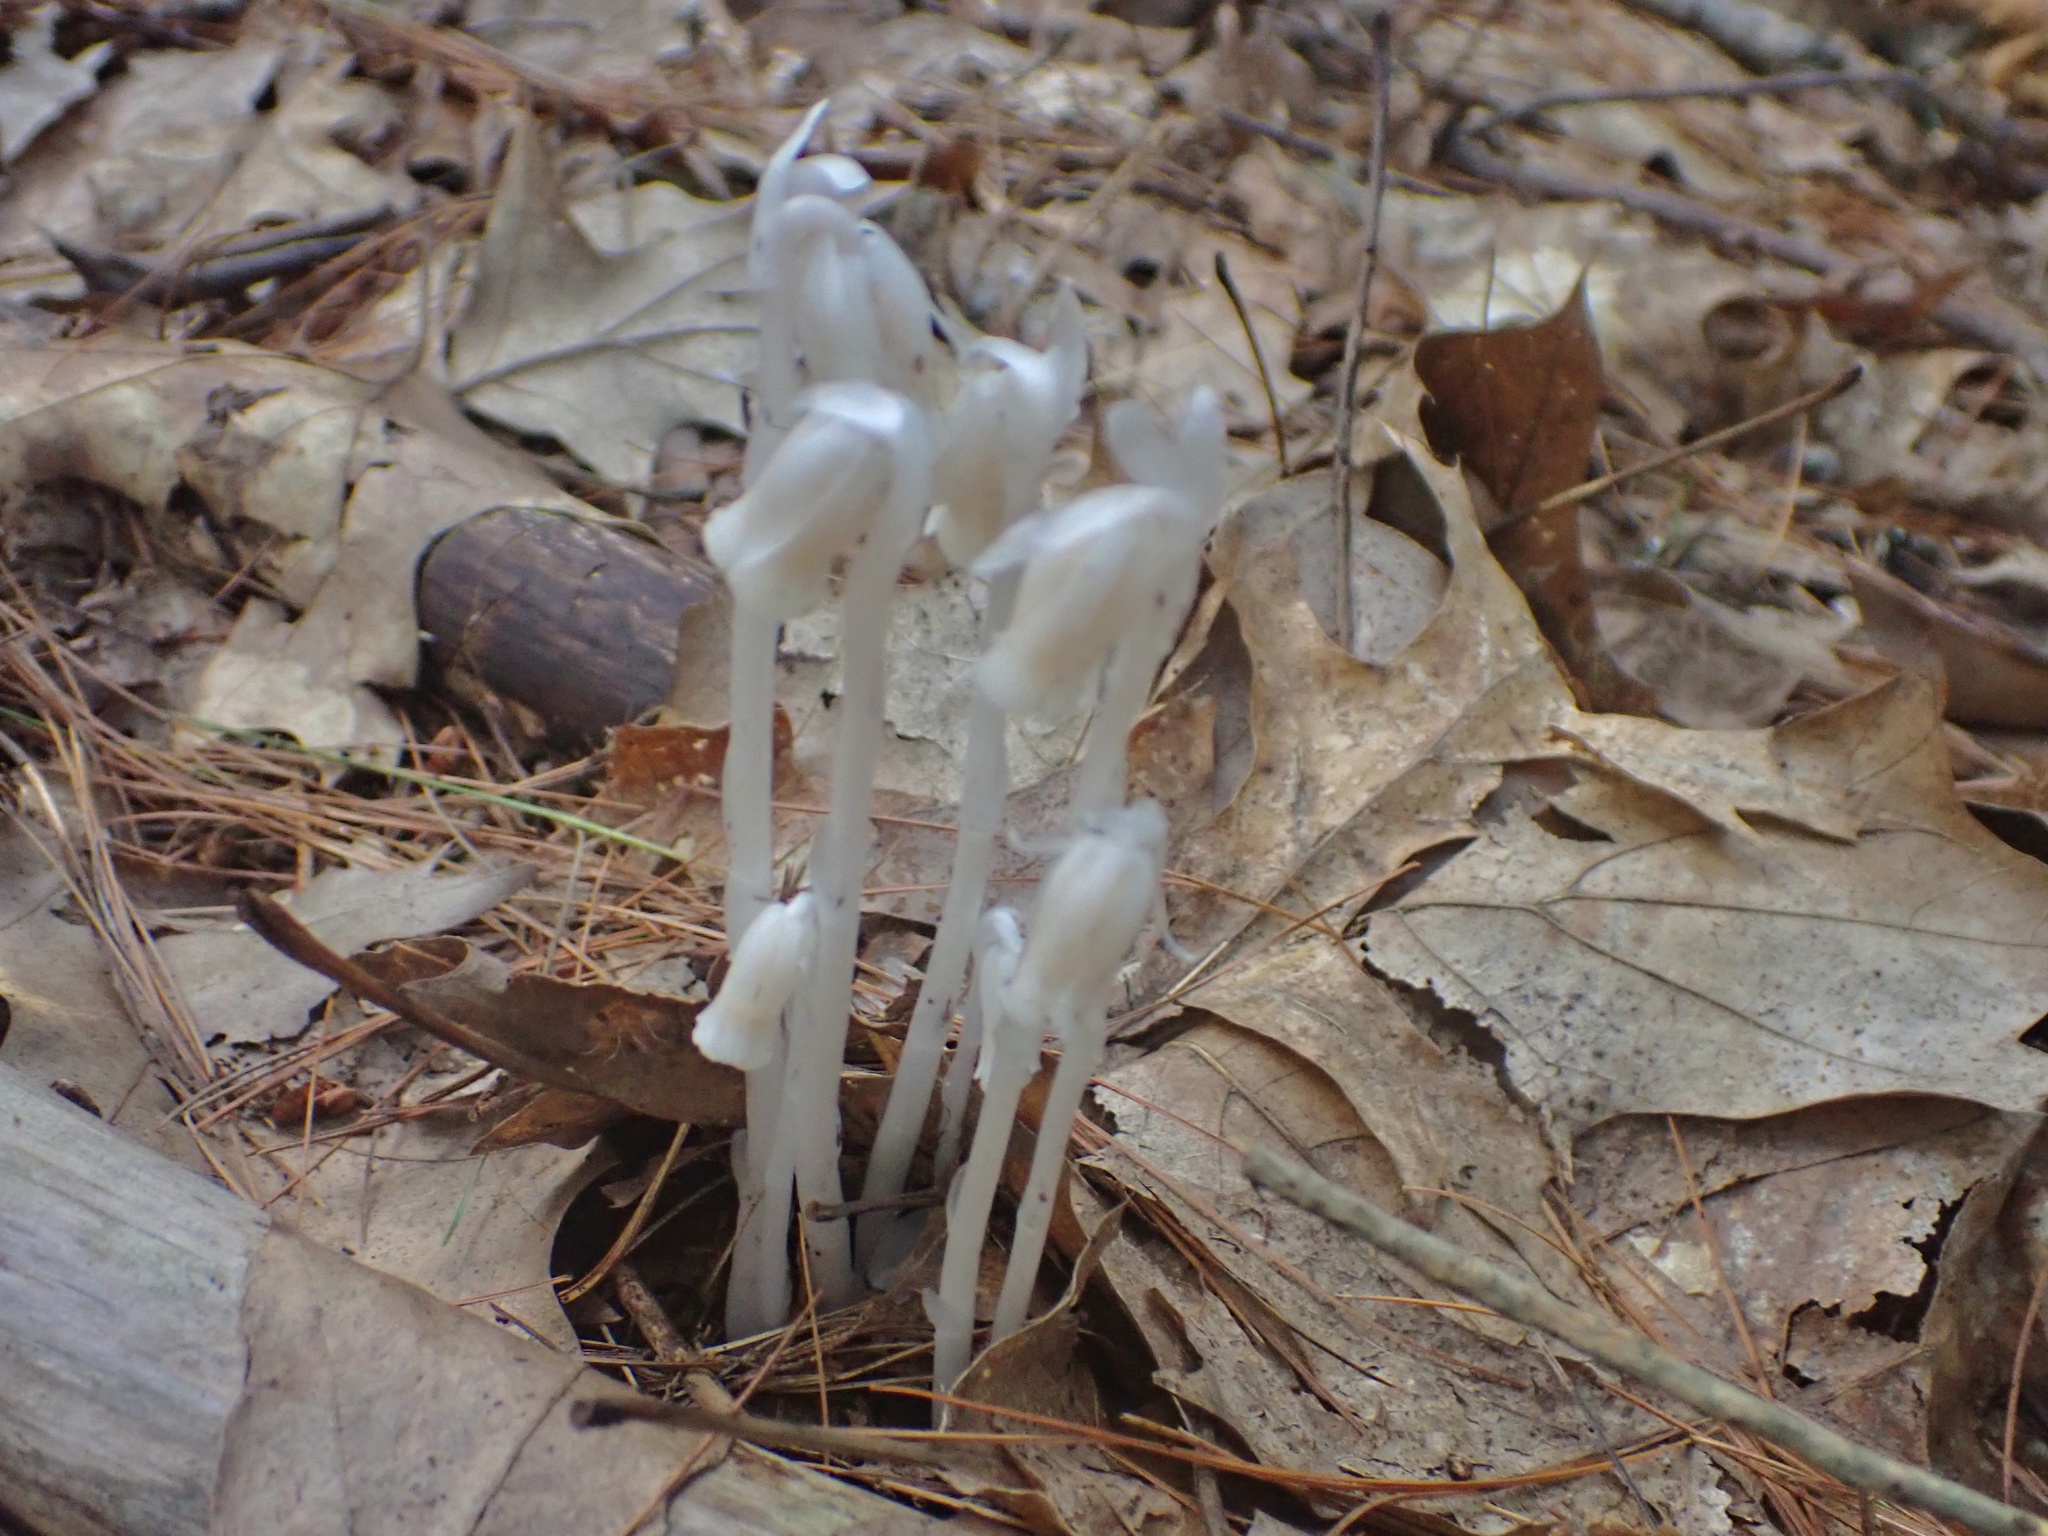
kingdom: Plantae
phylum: Tracheophyta
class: Magnoliopsida
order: Ericales
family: Ericaceae
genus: Monotropa
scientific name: Monotropa uniflora
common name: Convulsion root
